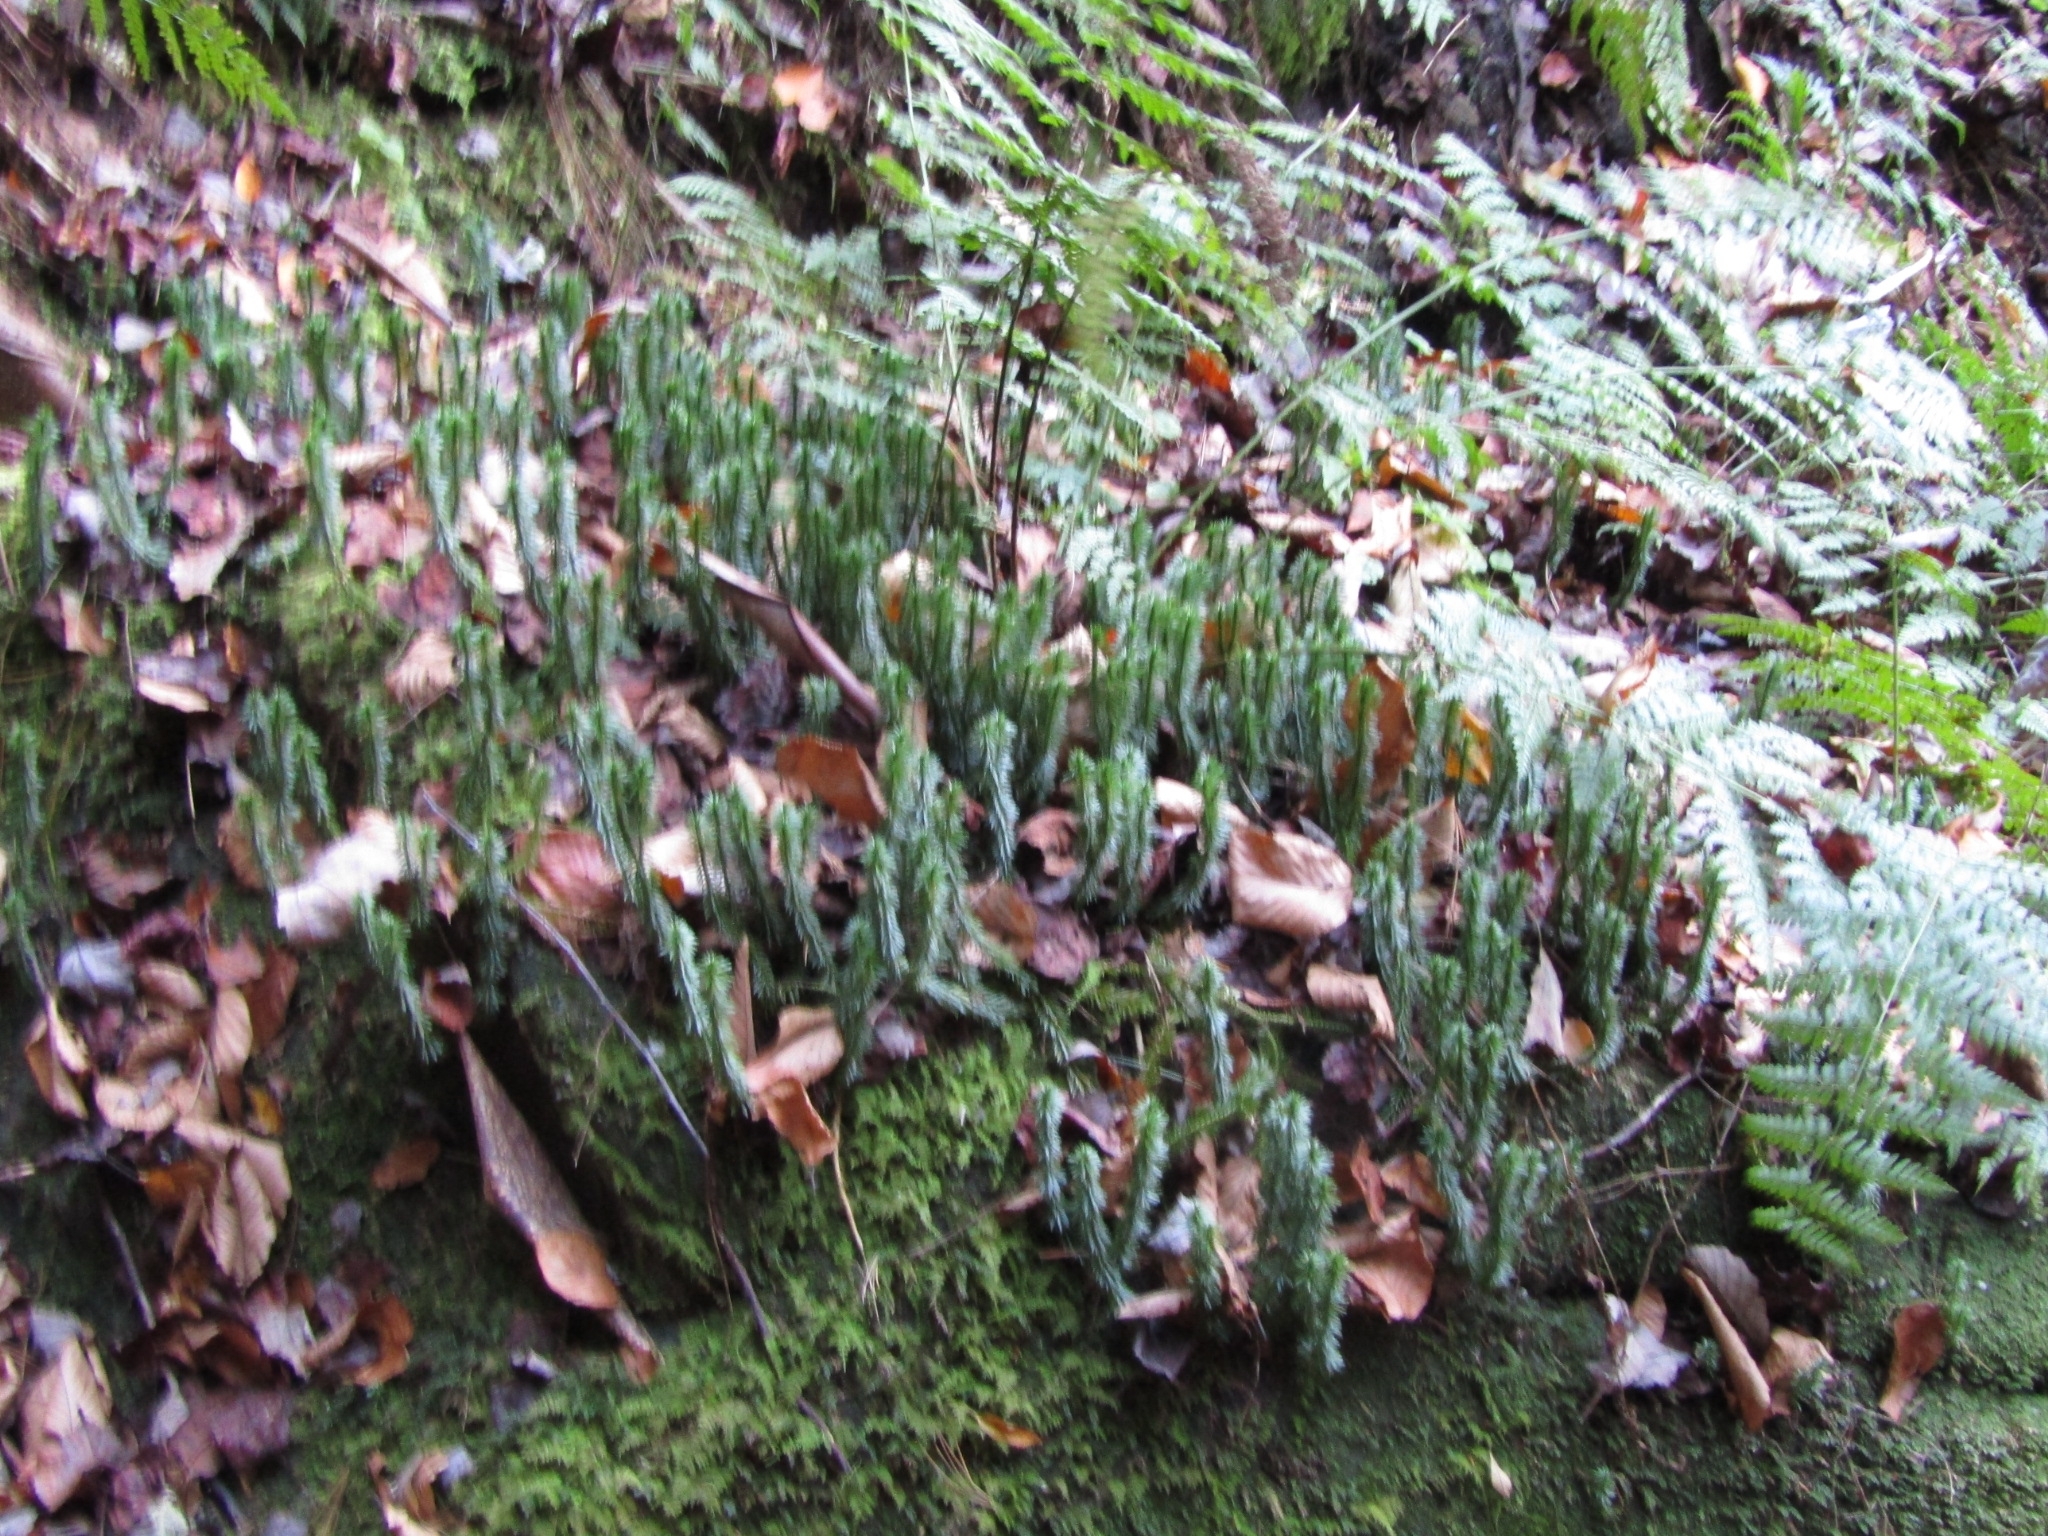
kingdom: Plantae
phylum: Tracheophyta
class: Lycopodiopsida
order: Lycopodiales
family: Lycopodiaceae
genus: Huperzia
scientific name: Huperzia lucidula
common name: Shining clubmoss
